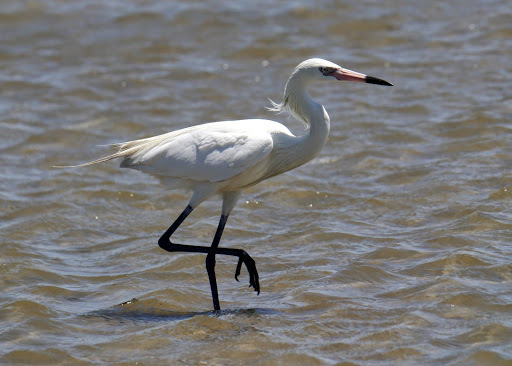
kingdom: Animalia
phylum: Chordata
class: Aves
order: Pelecaniformes
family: Ardeidae
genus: Egretta
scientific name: Egretta rufescens
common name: Reddish egret
